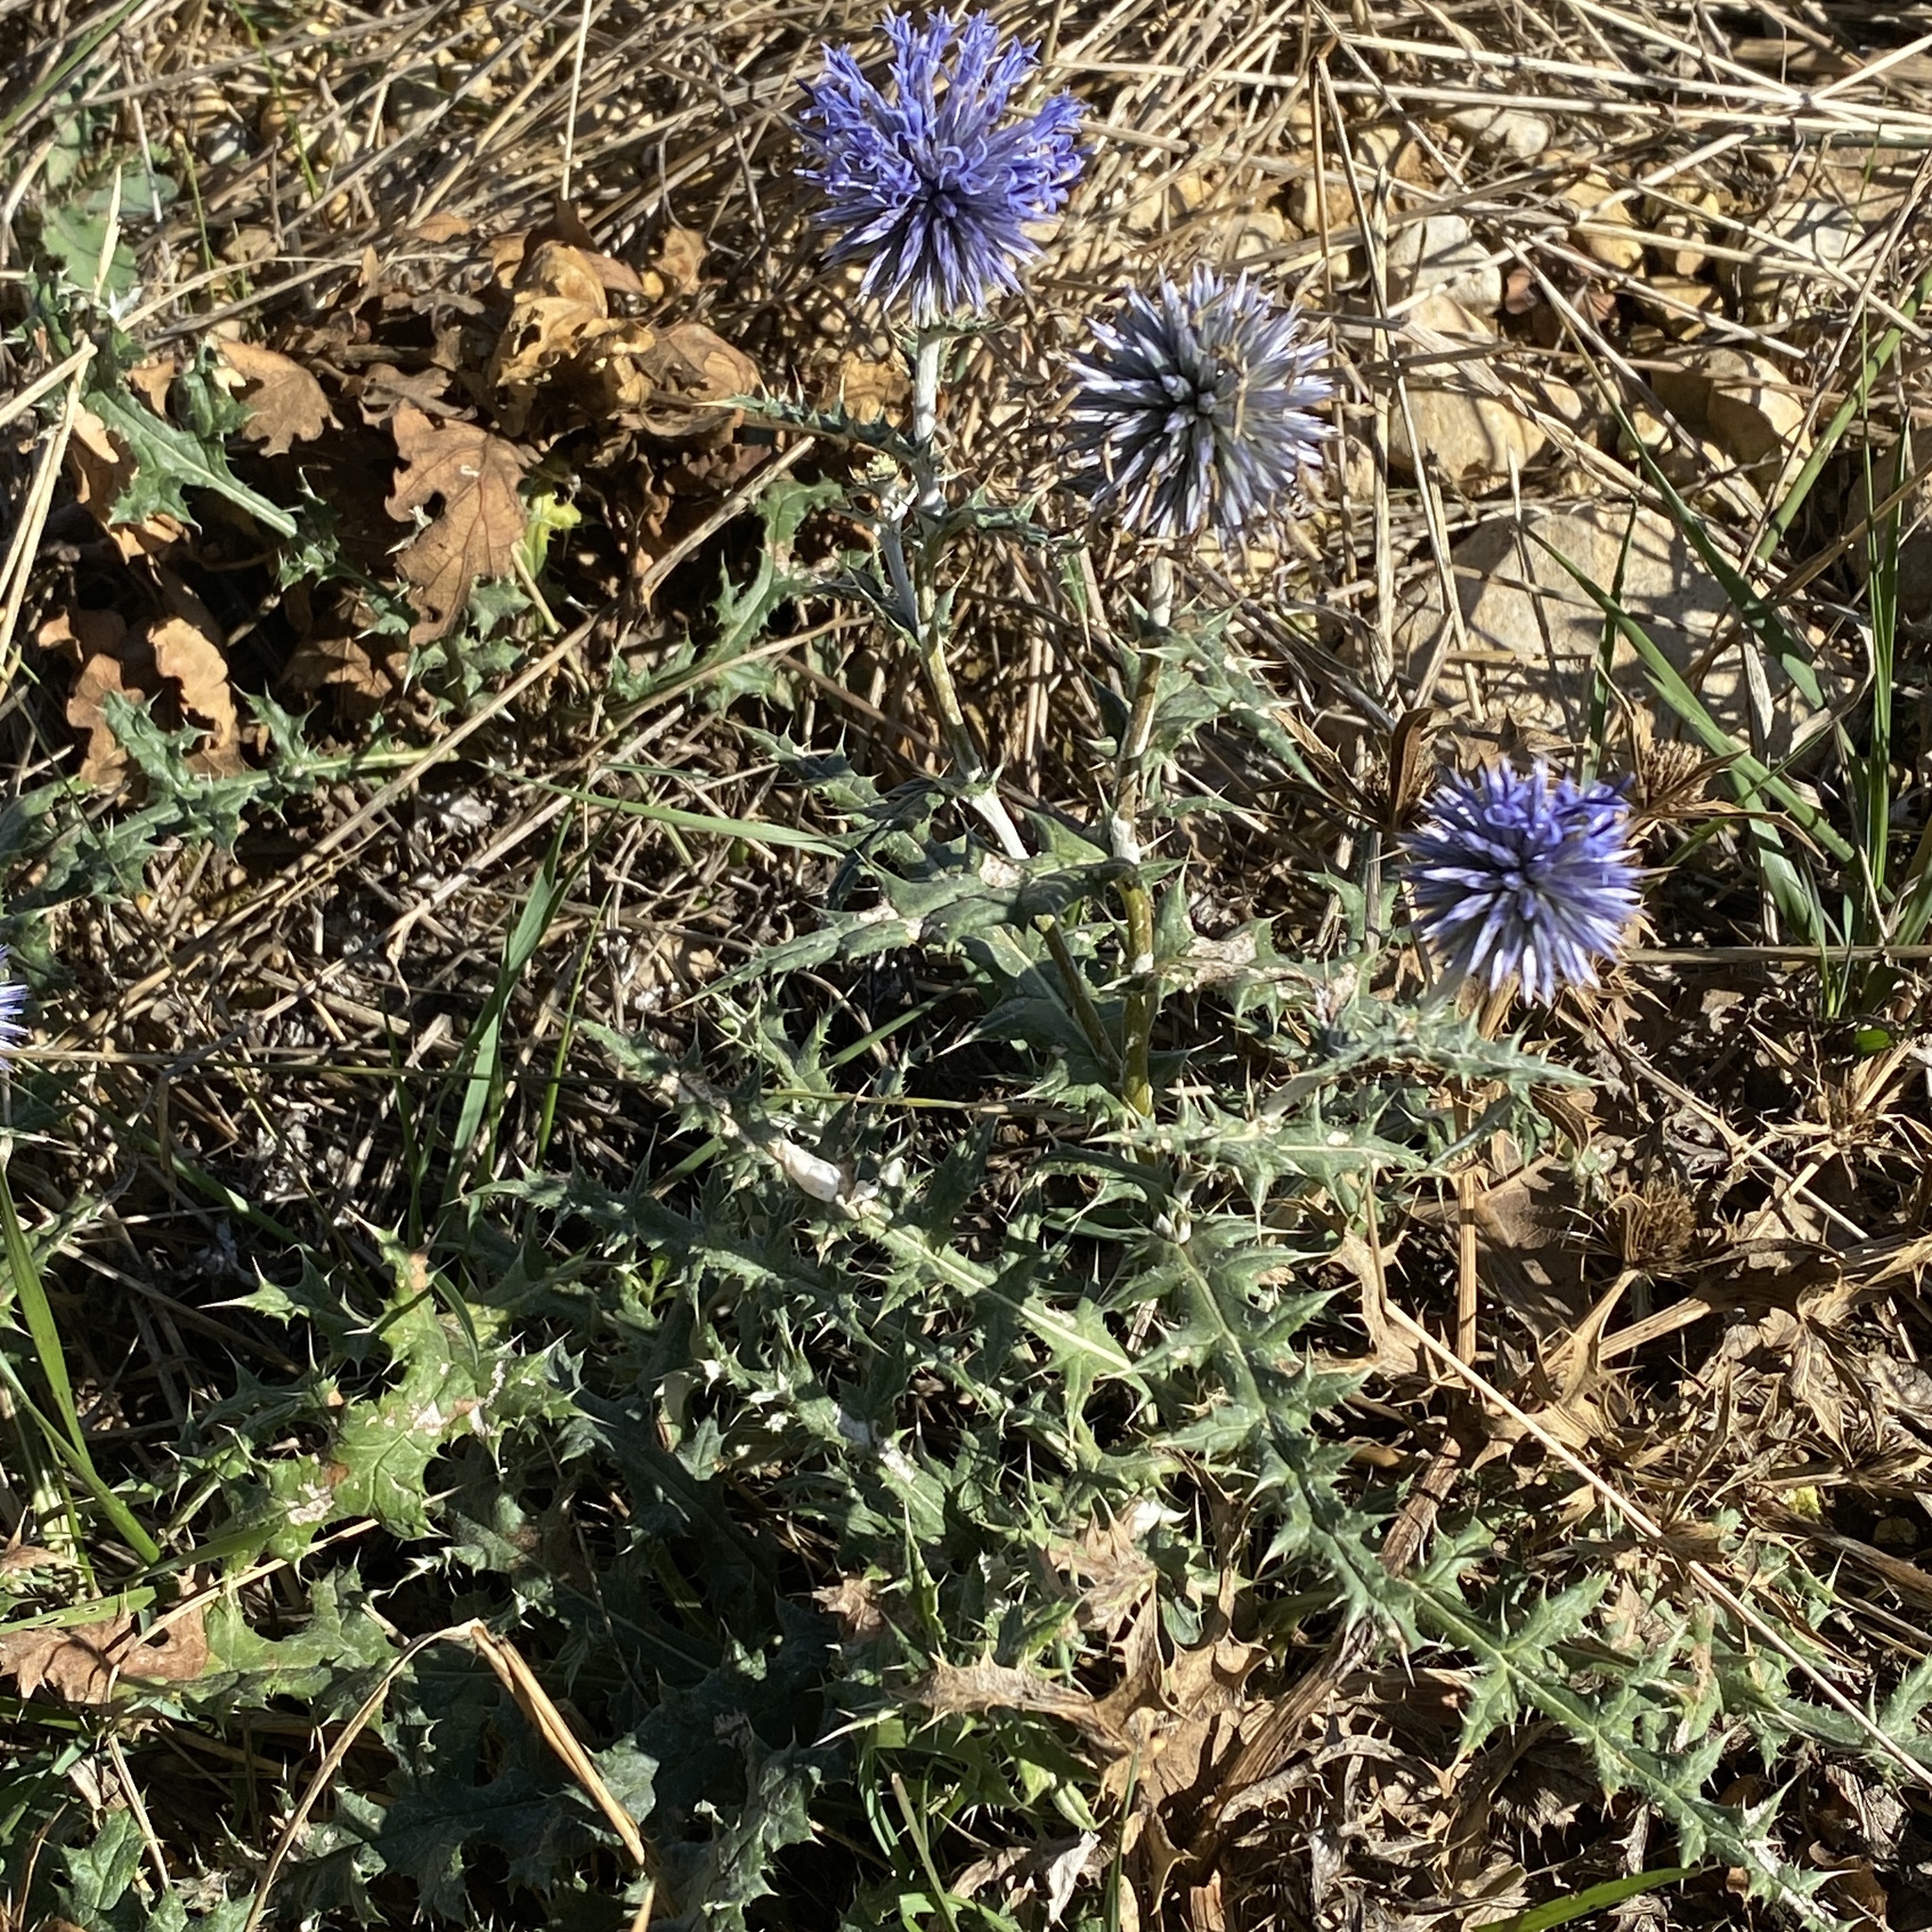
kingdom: Plantae
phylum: Tracheophyta
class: Magnoliopsida
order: Asterales
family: Asteraceae
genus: Echinops
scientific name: Echinops ritro
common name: Globe thistle
